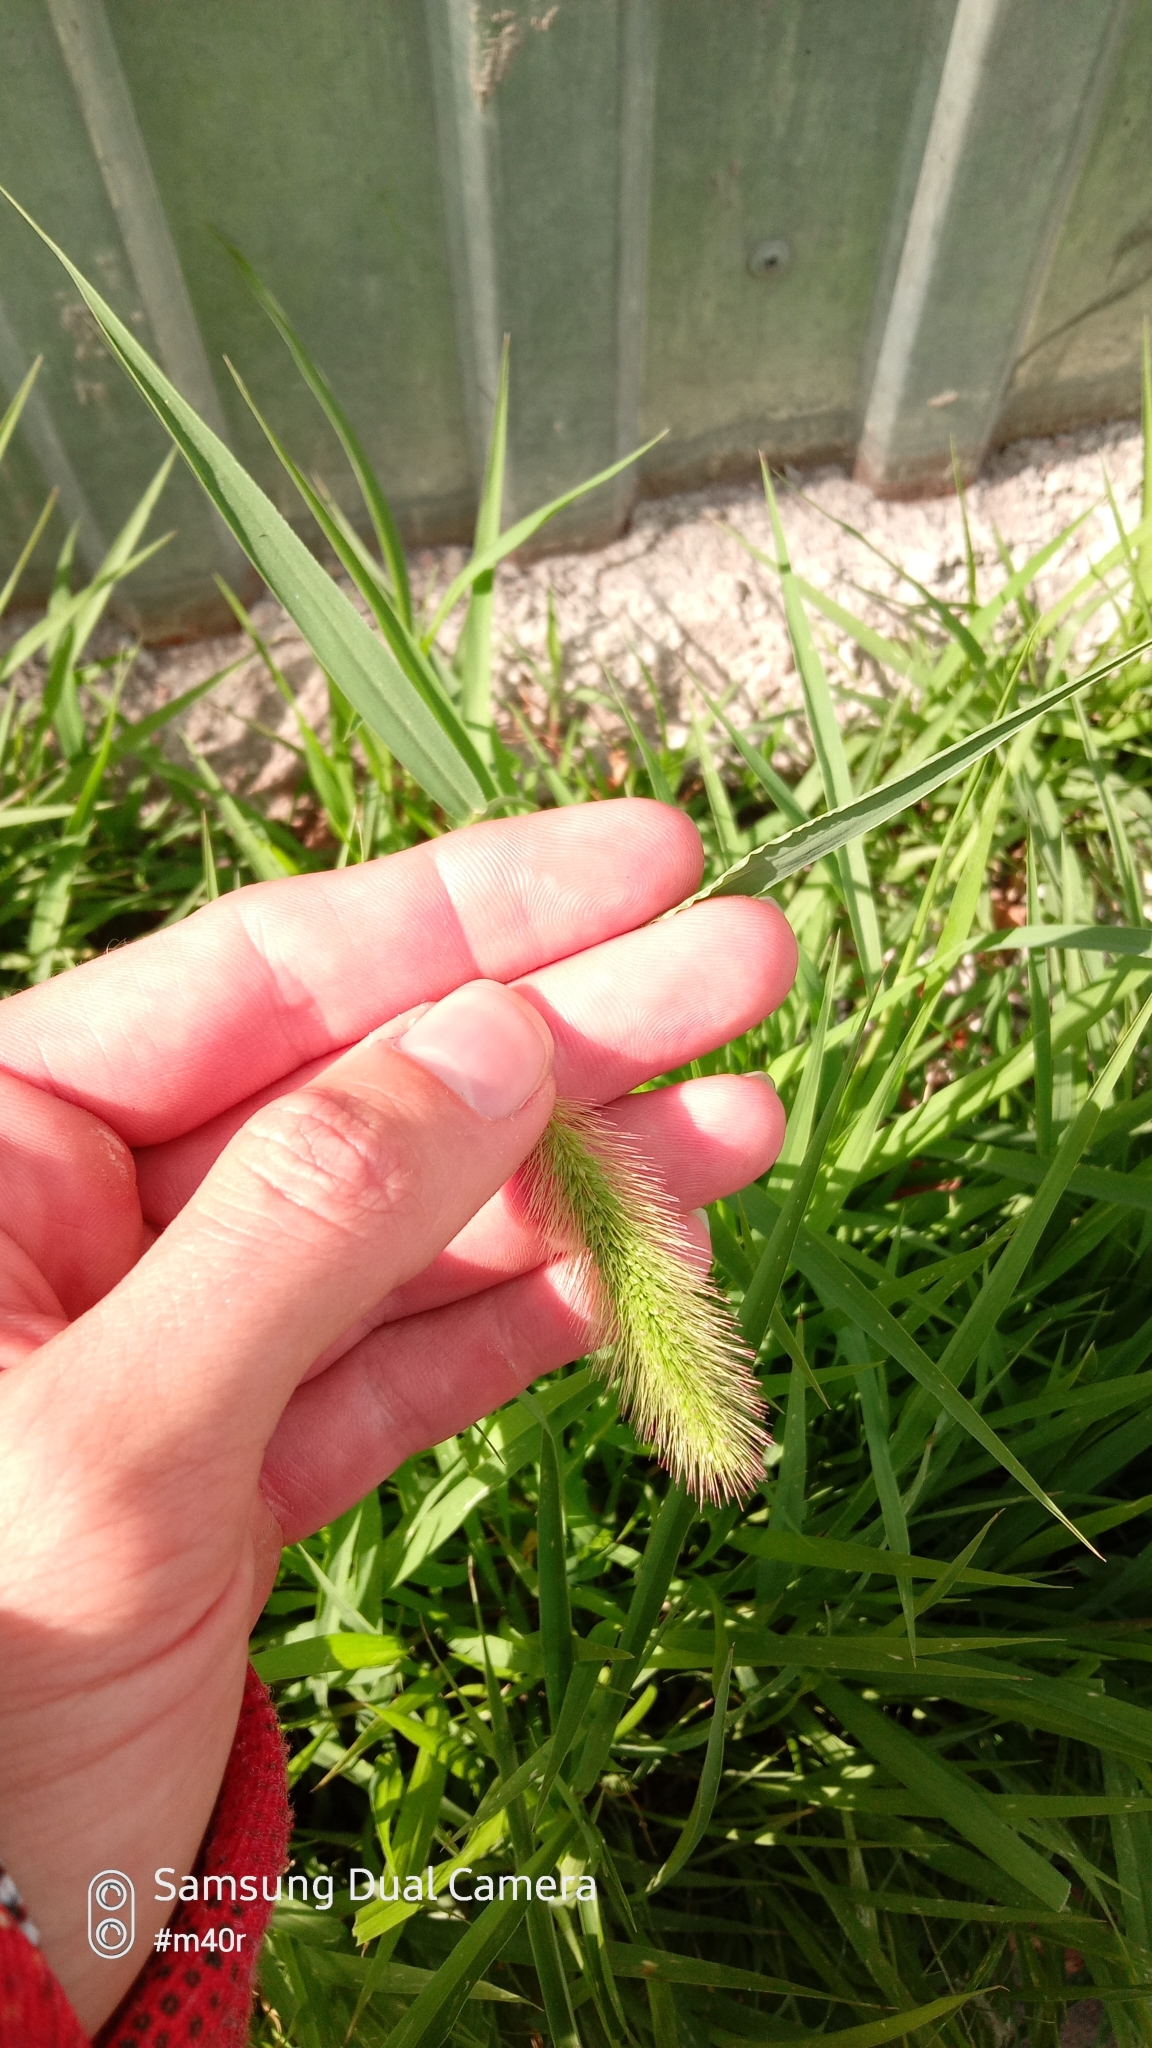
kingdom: Plantae
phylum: Tracheophyta
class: Liliopsida
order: Poales
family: Poaceae
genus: Setaria
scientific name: Setaria viridis
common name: Green bristlegrass
